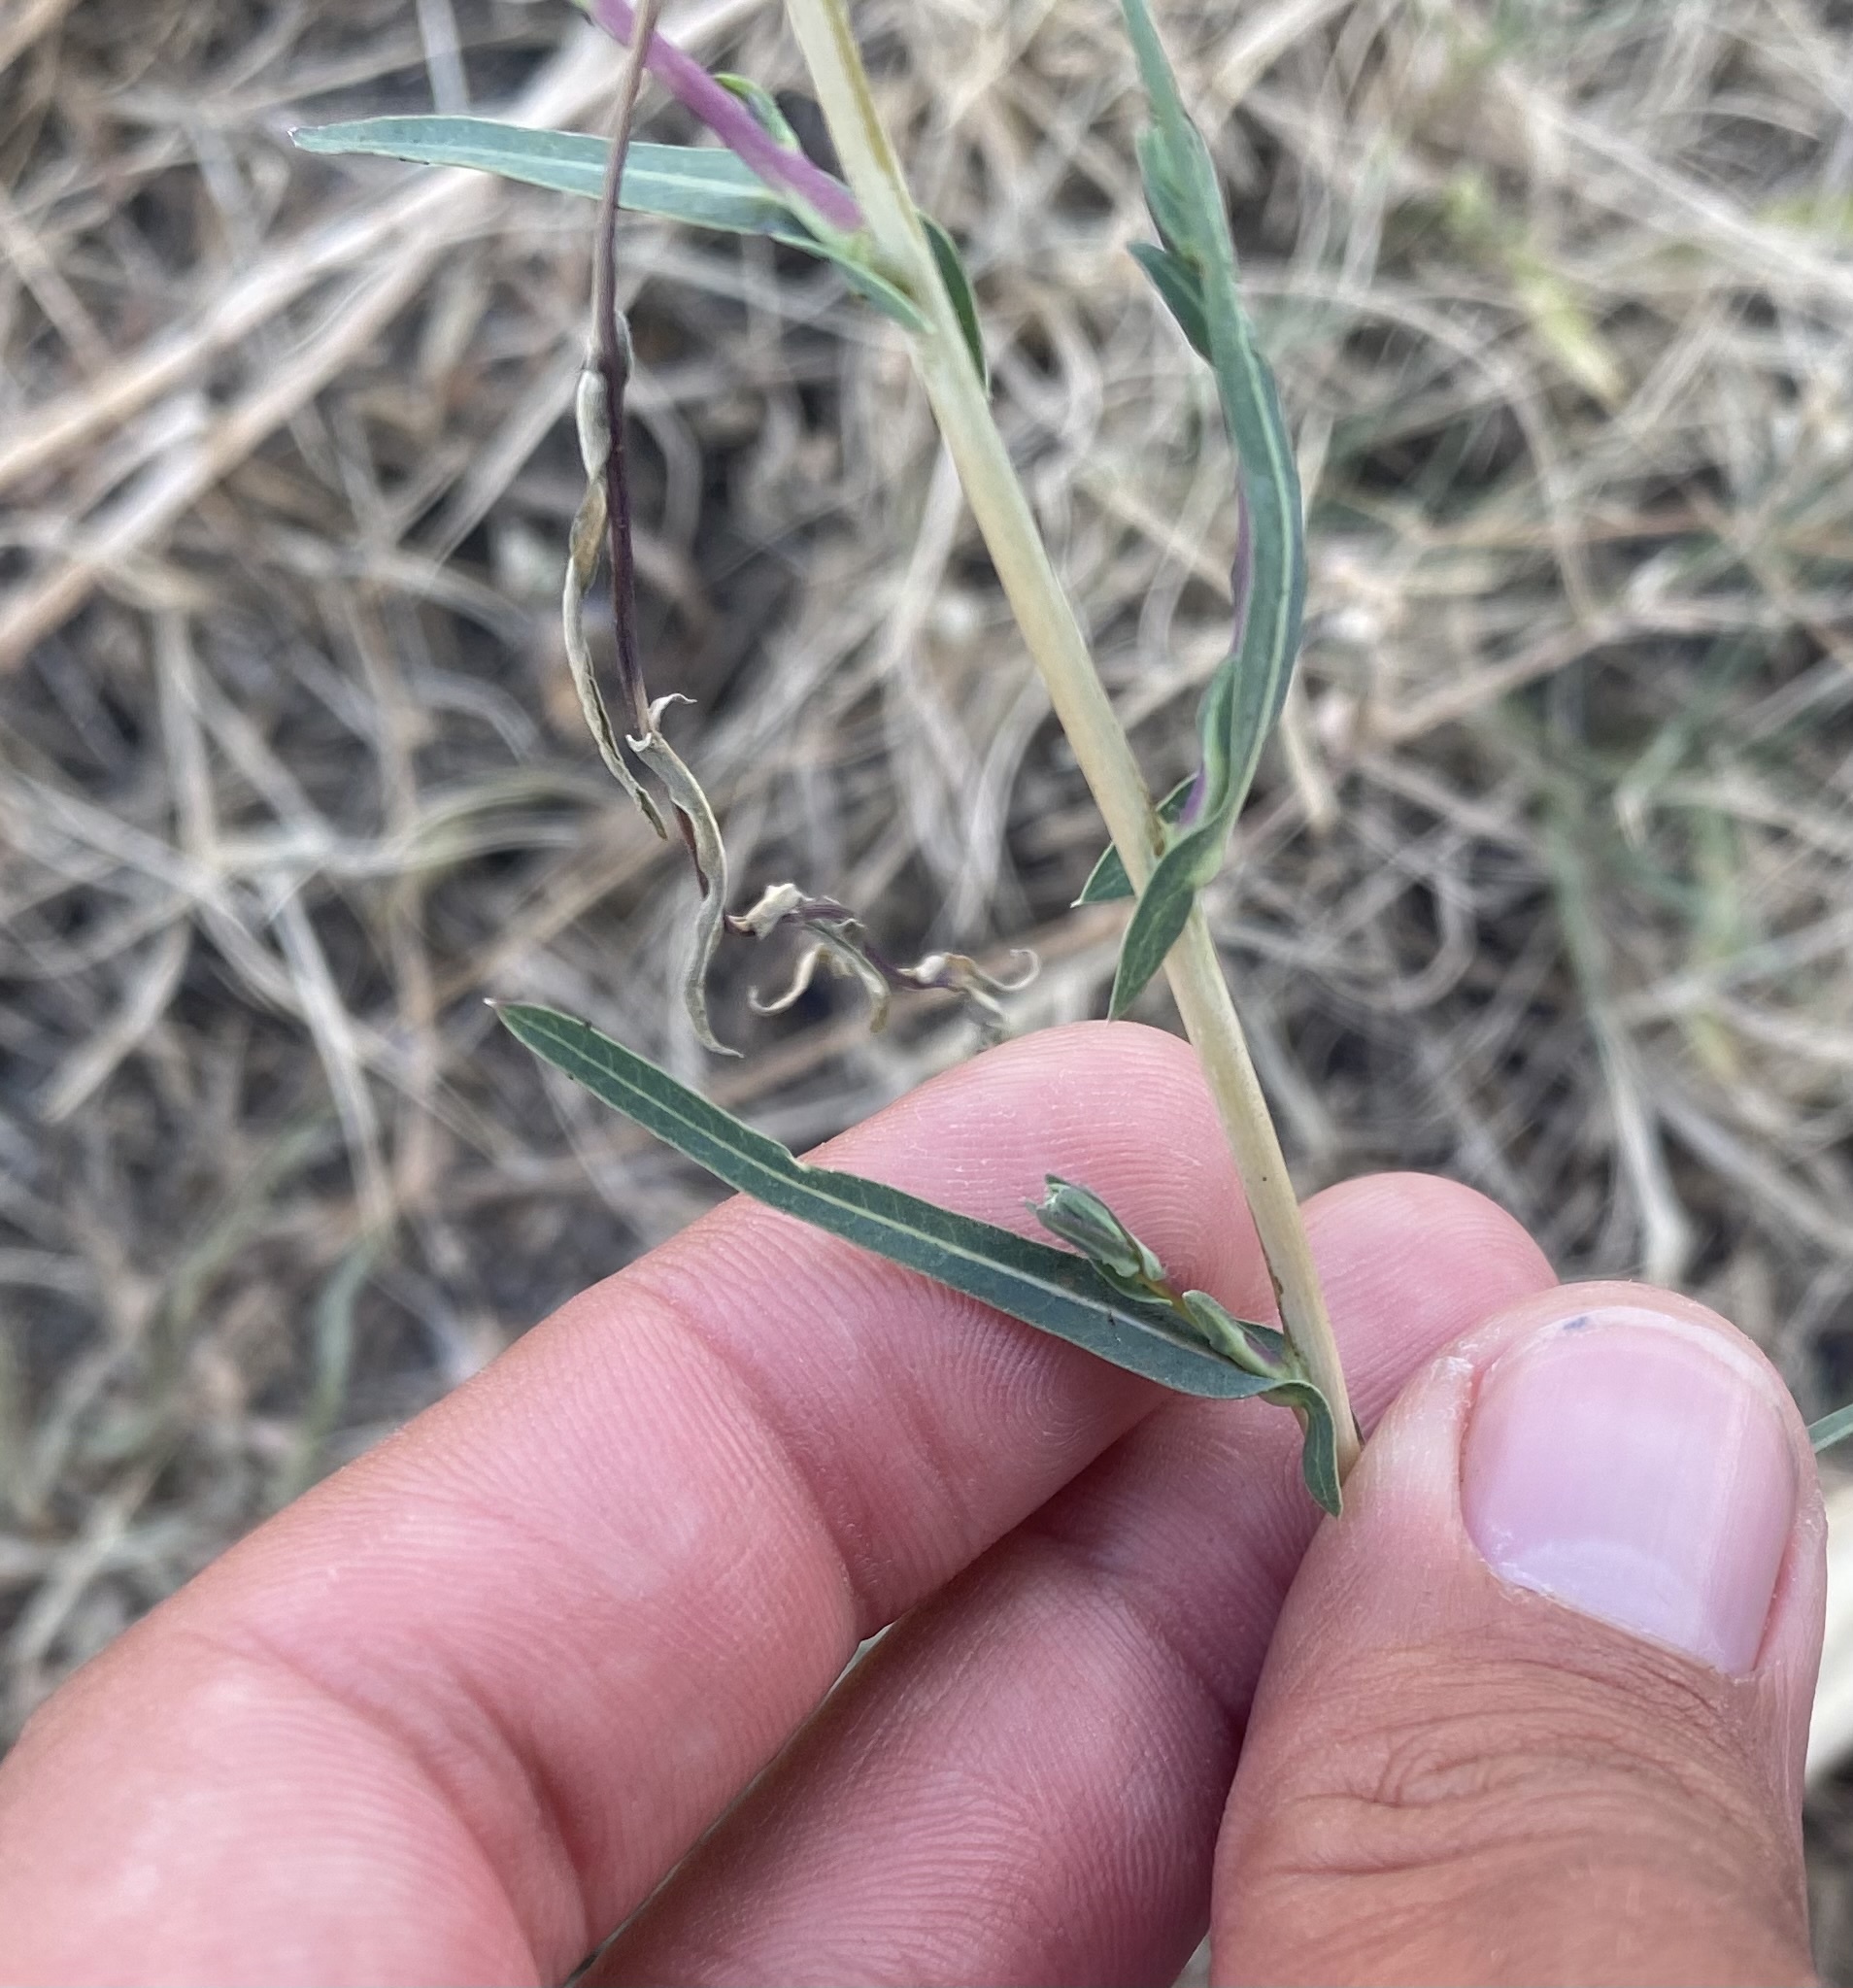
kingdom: Plantae
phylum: Tracheophyta
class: Magnoliopsida
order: Asterales
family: Asteraceae
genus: Lactuca
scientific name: Lactuca saligna
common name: Wild lettuce
